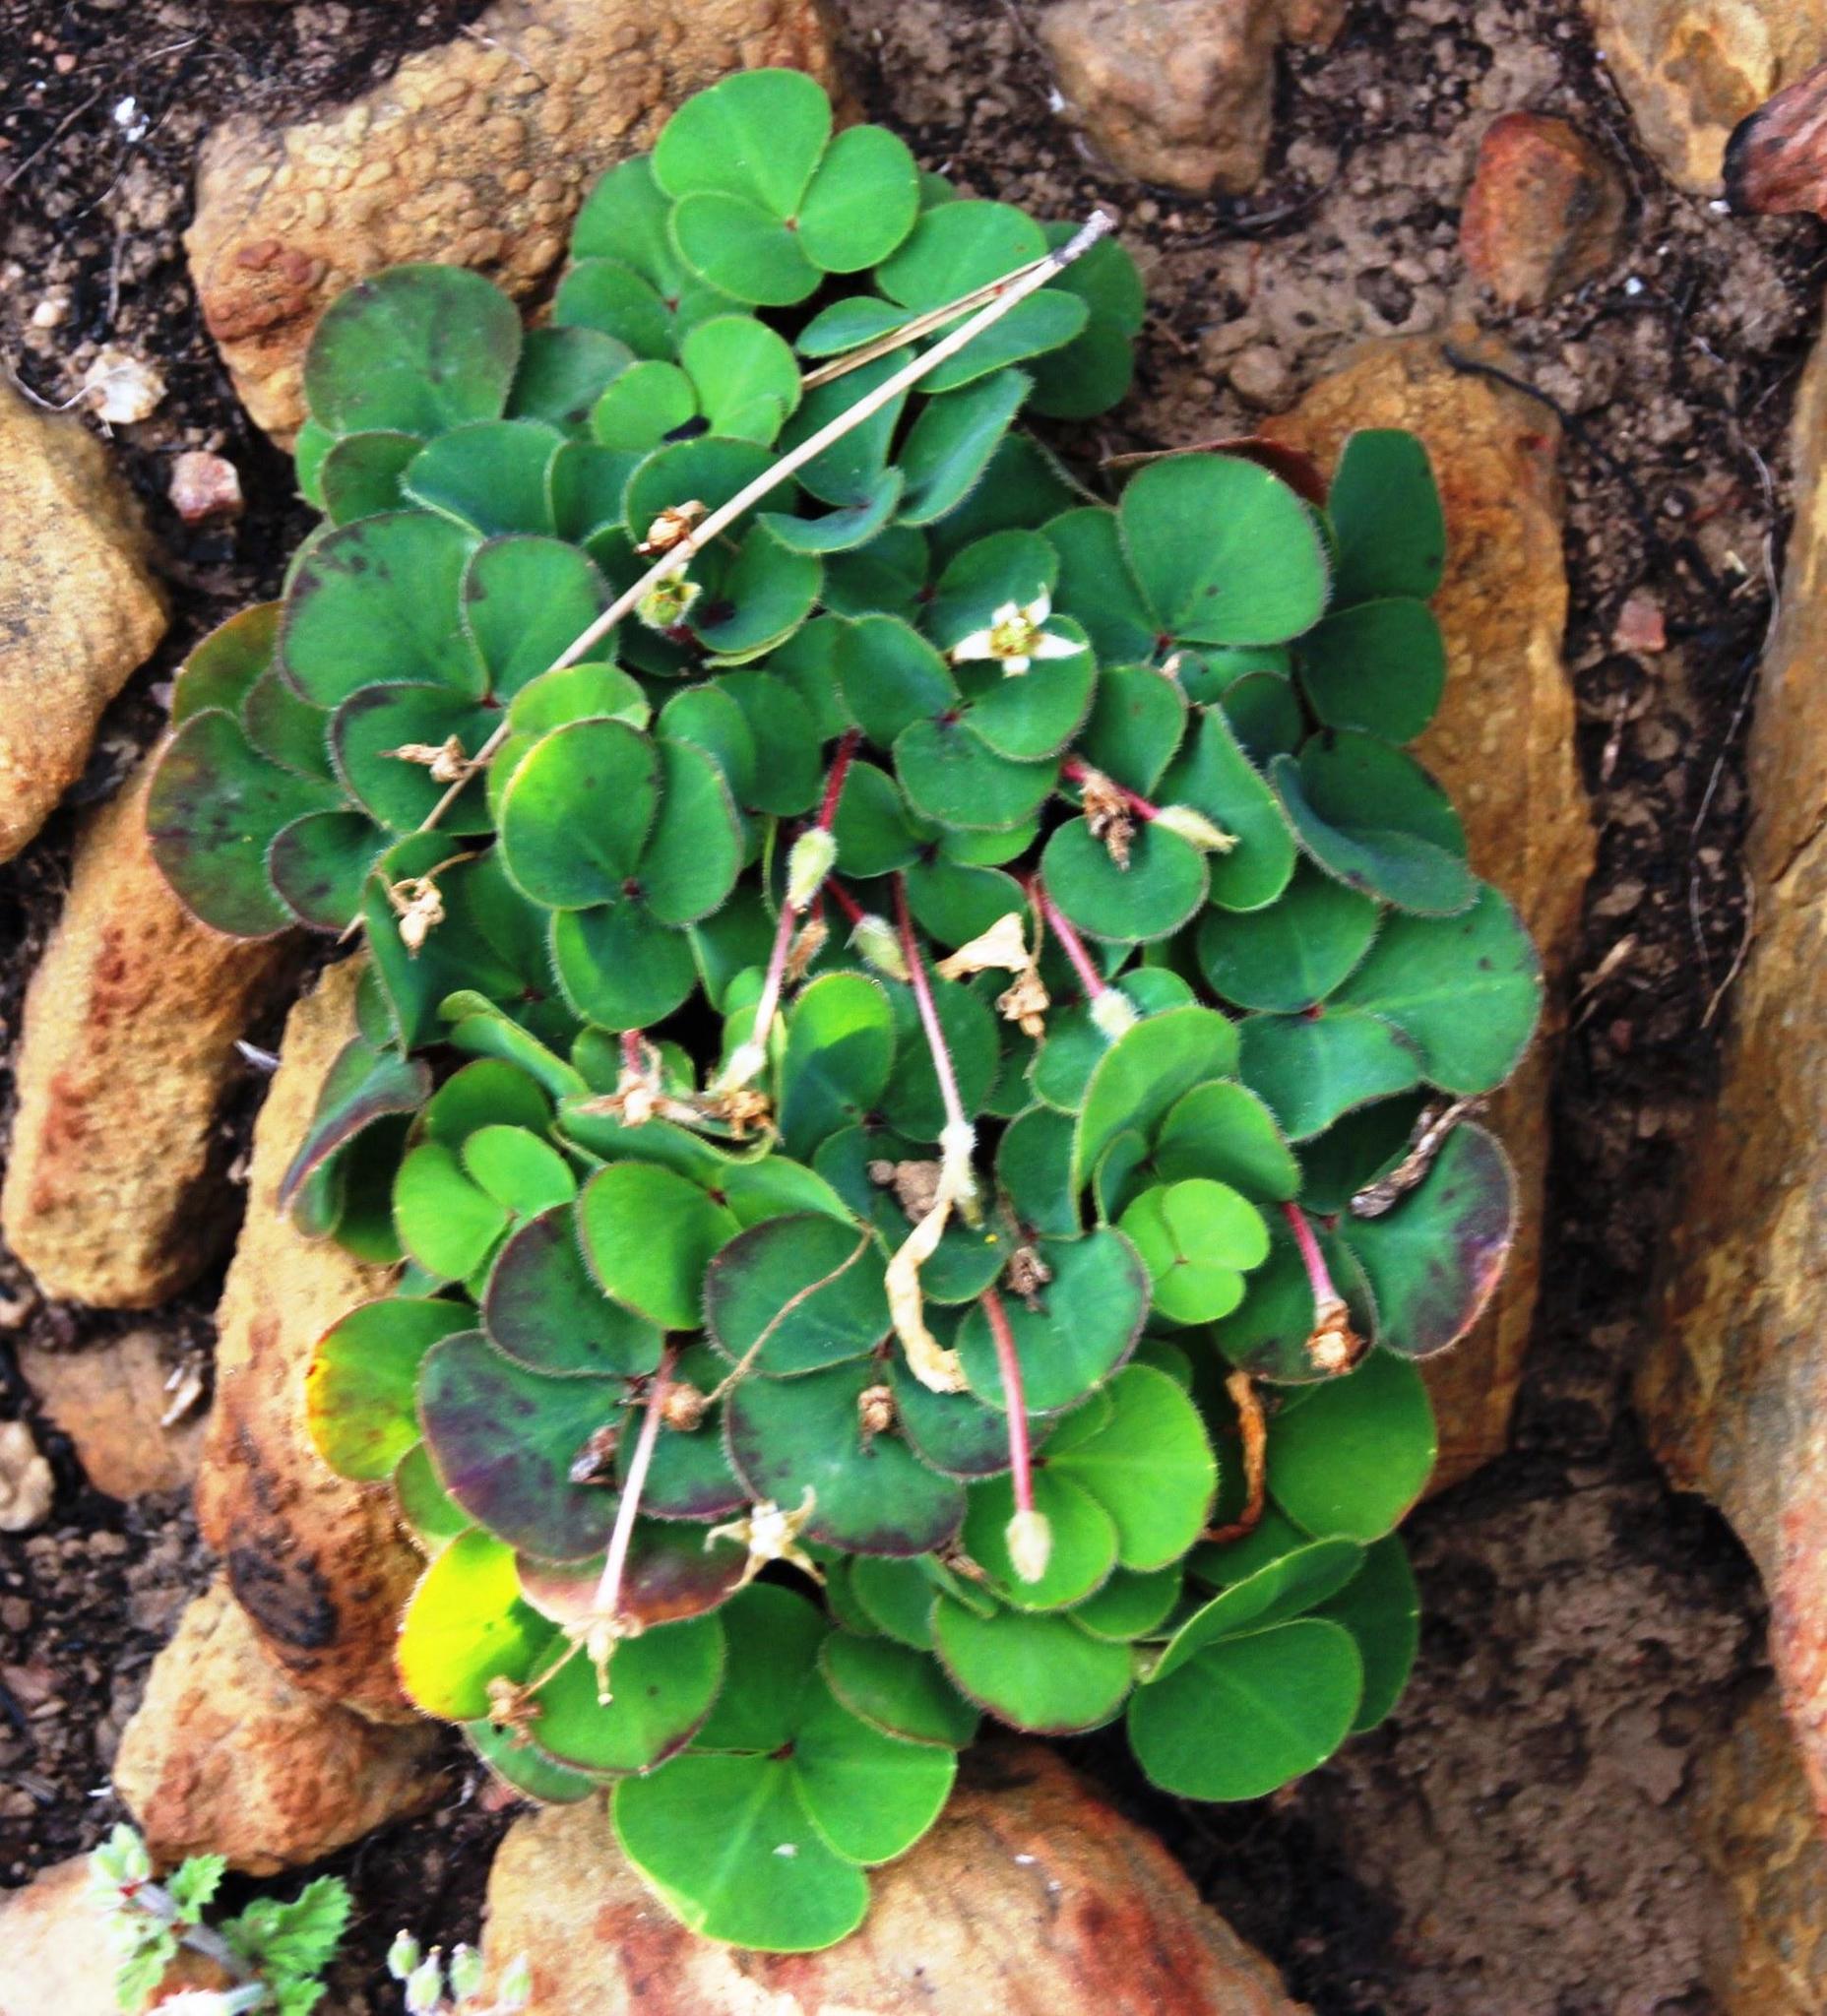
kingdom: Plantae
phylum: Tracheophyta
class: Magnoliopsida
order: Oxalidales
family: Oxalidaceae
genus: Oxalis
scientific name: Oxalis purpurea
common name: Purple woodsorrel
